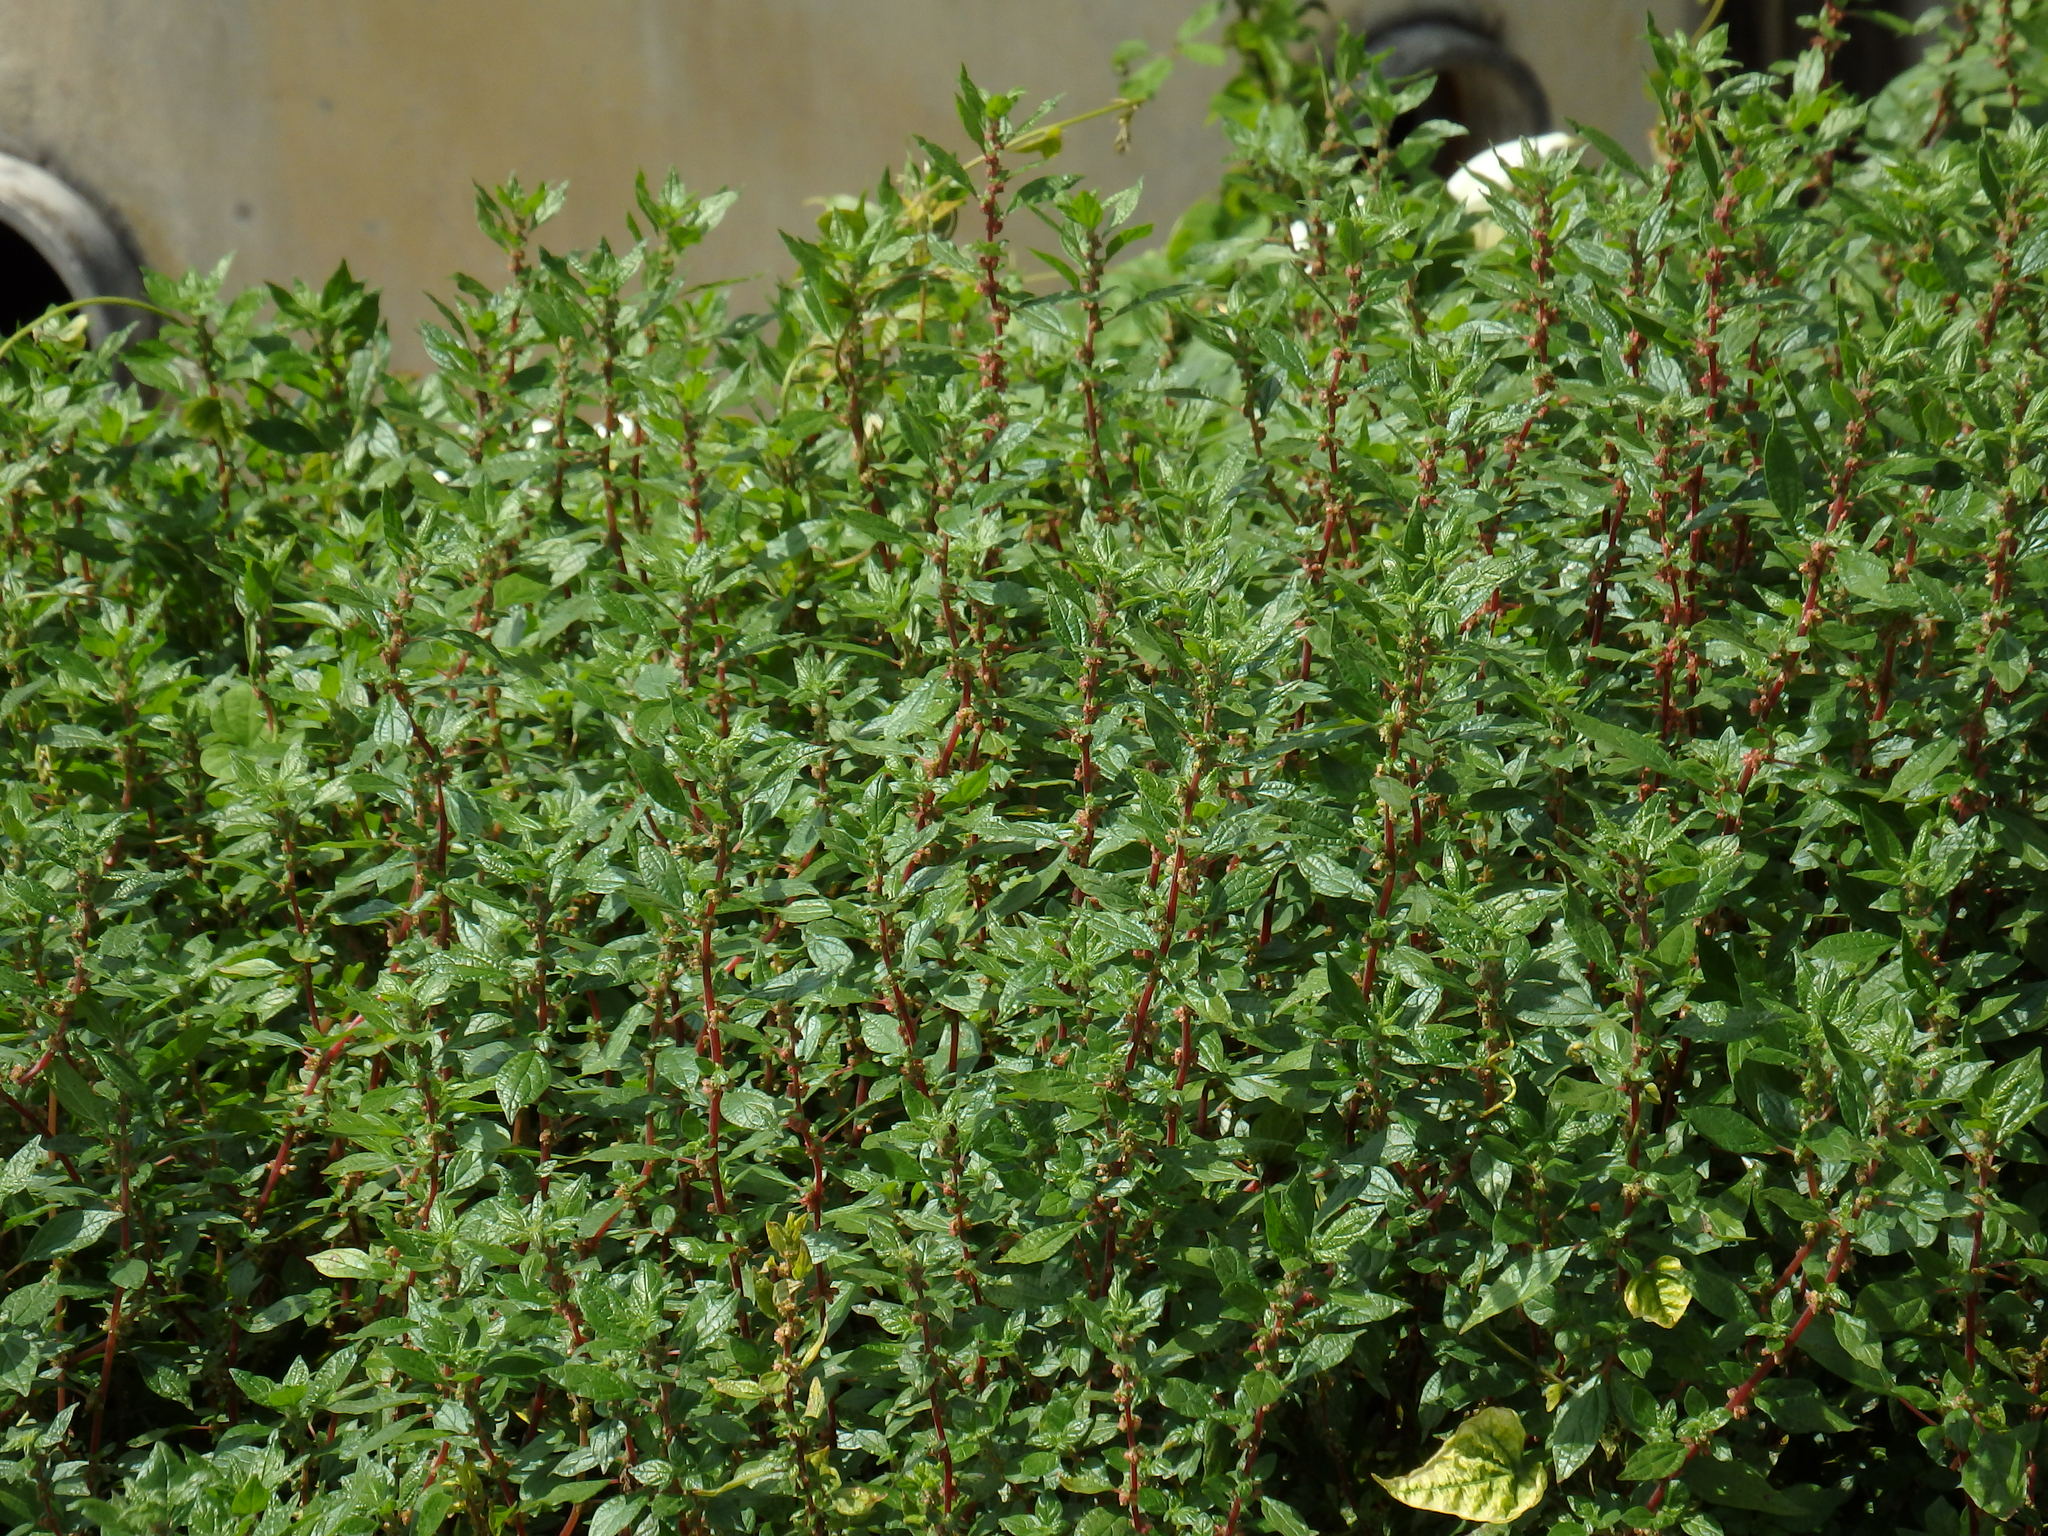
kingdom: Plantae
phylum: Tracheophyta
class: Magnoliopsida
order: Rosales
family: Urticaceae
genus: Parietaria
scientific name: Parietaria judaica
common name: Pellitory-of-the-wall
